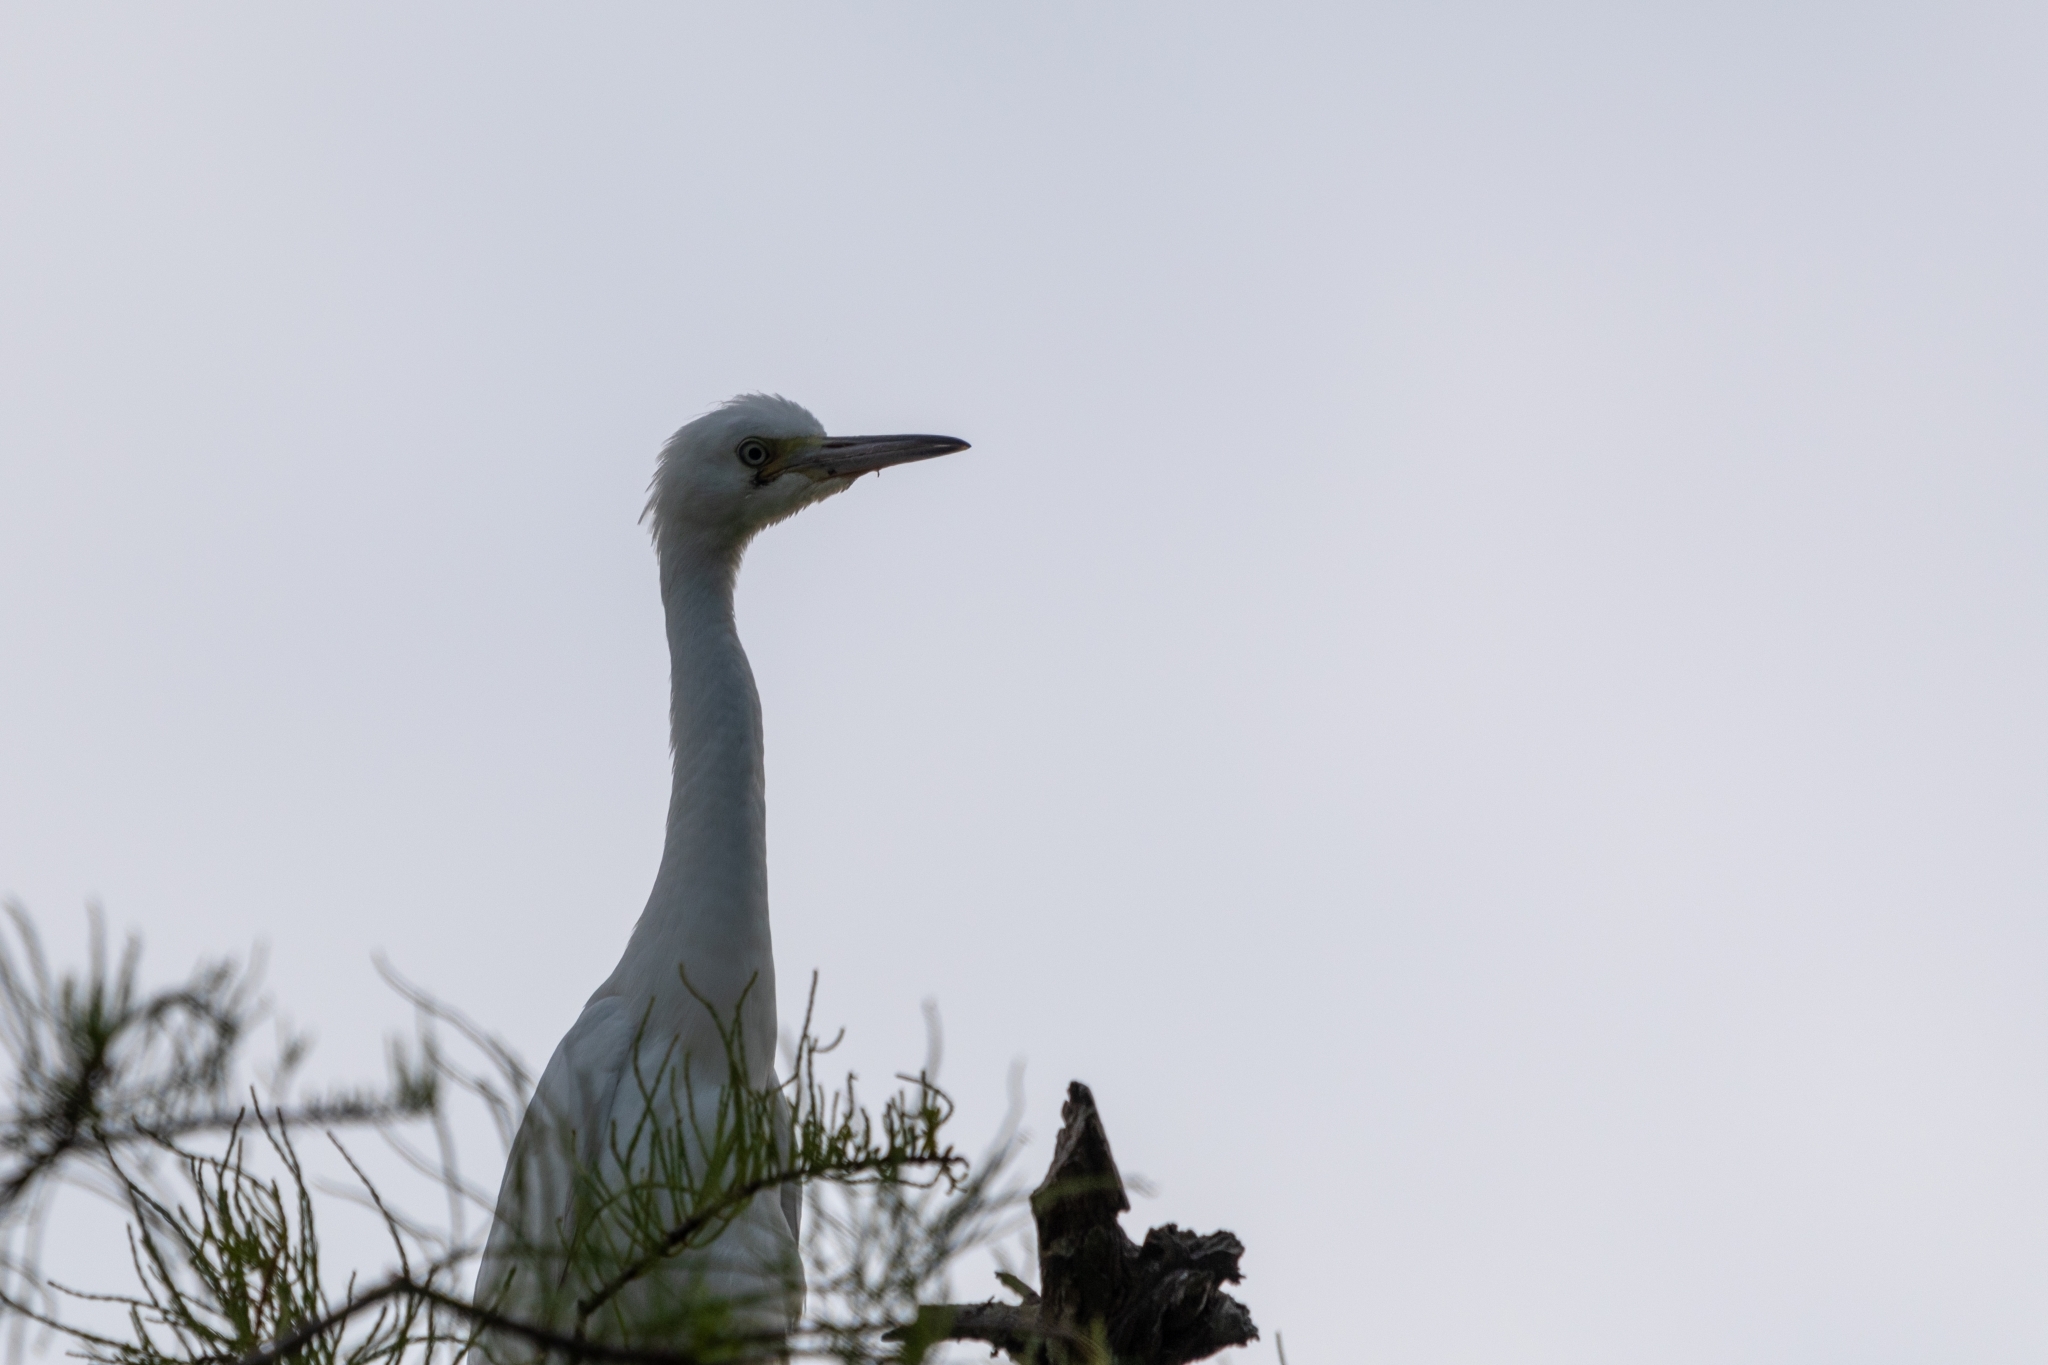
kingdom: Animalia
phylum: Chordata
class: Aves
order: Pelecaniformes
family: Ardeidae
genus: Egretta
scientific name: Egretta caerulea
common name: Little blue heron
